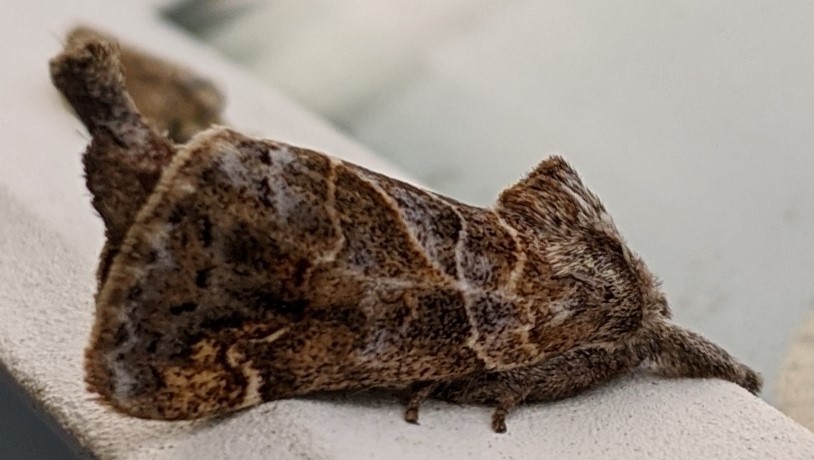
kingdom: Animalia
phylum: Arthropoda
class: Insecta
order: Lepidoptera
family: Notodontidae
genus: Clostera
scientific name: Clostera strigosa
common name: Striped chocolate-tip moth
